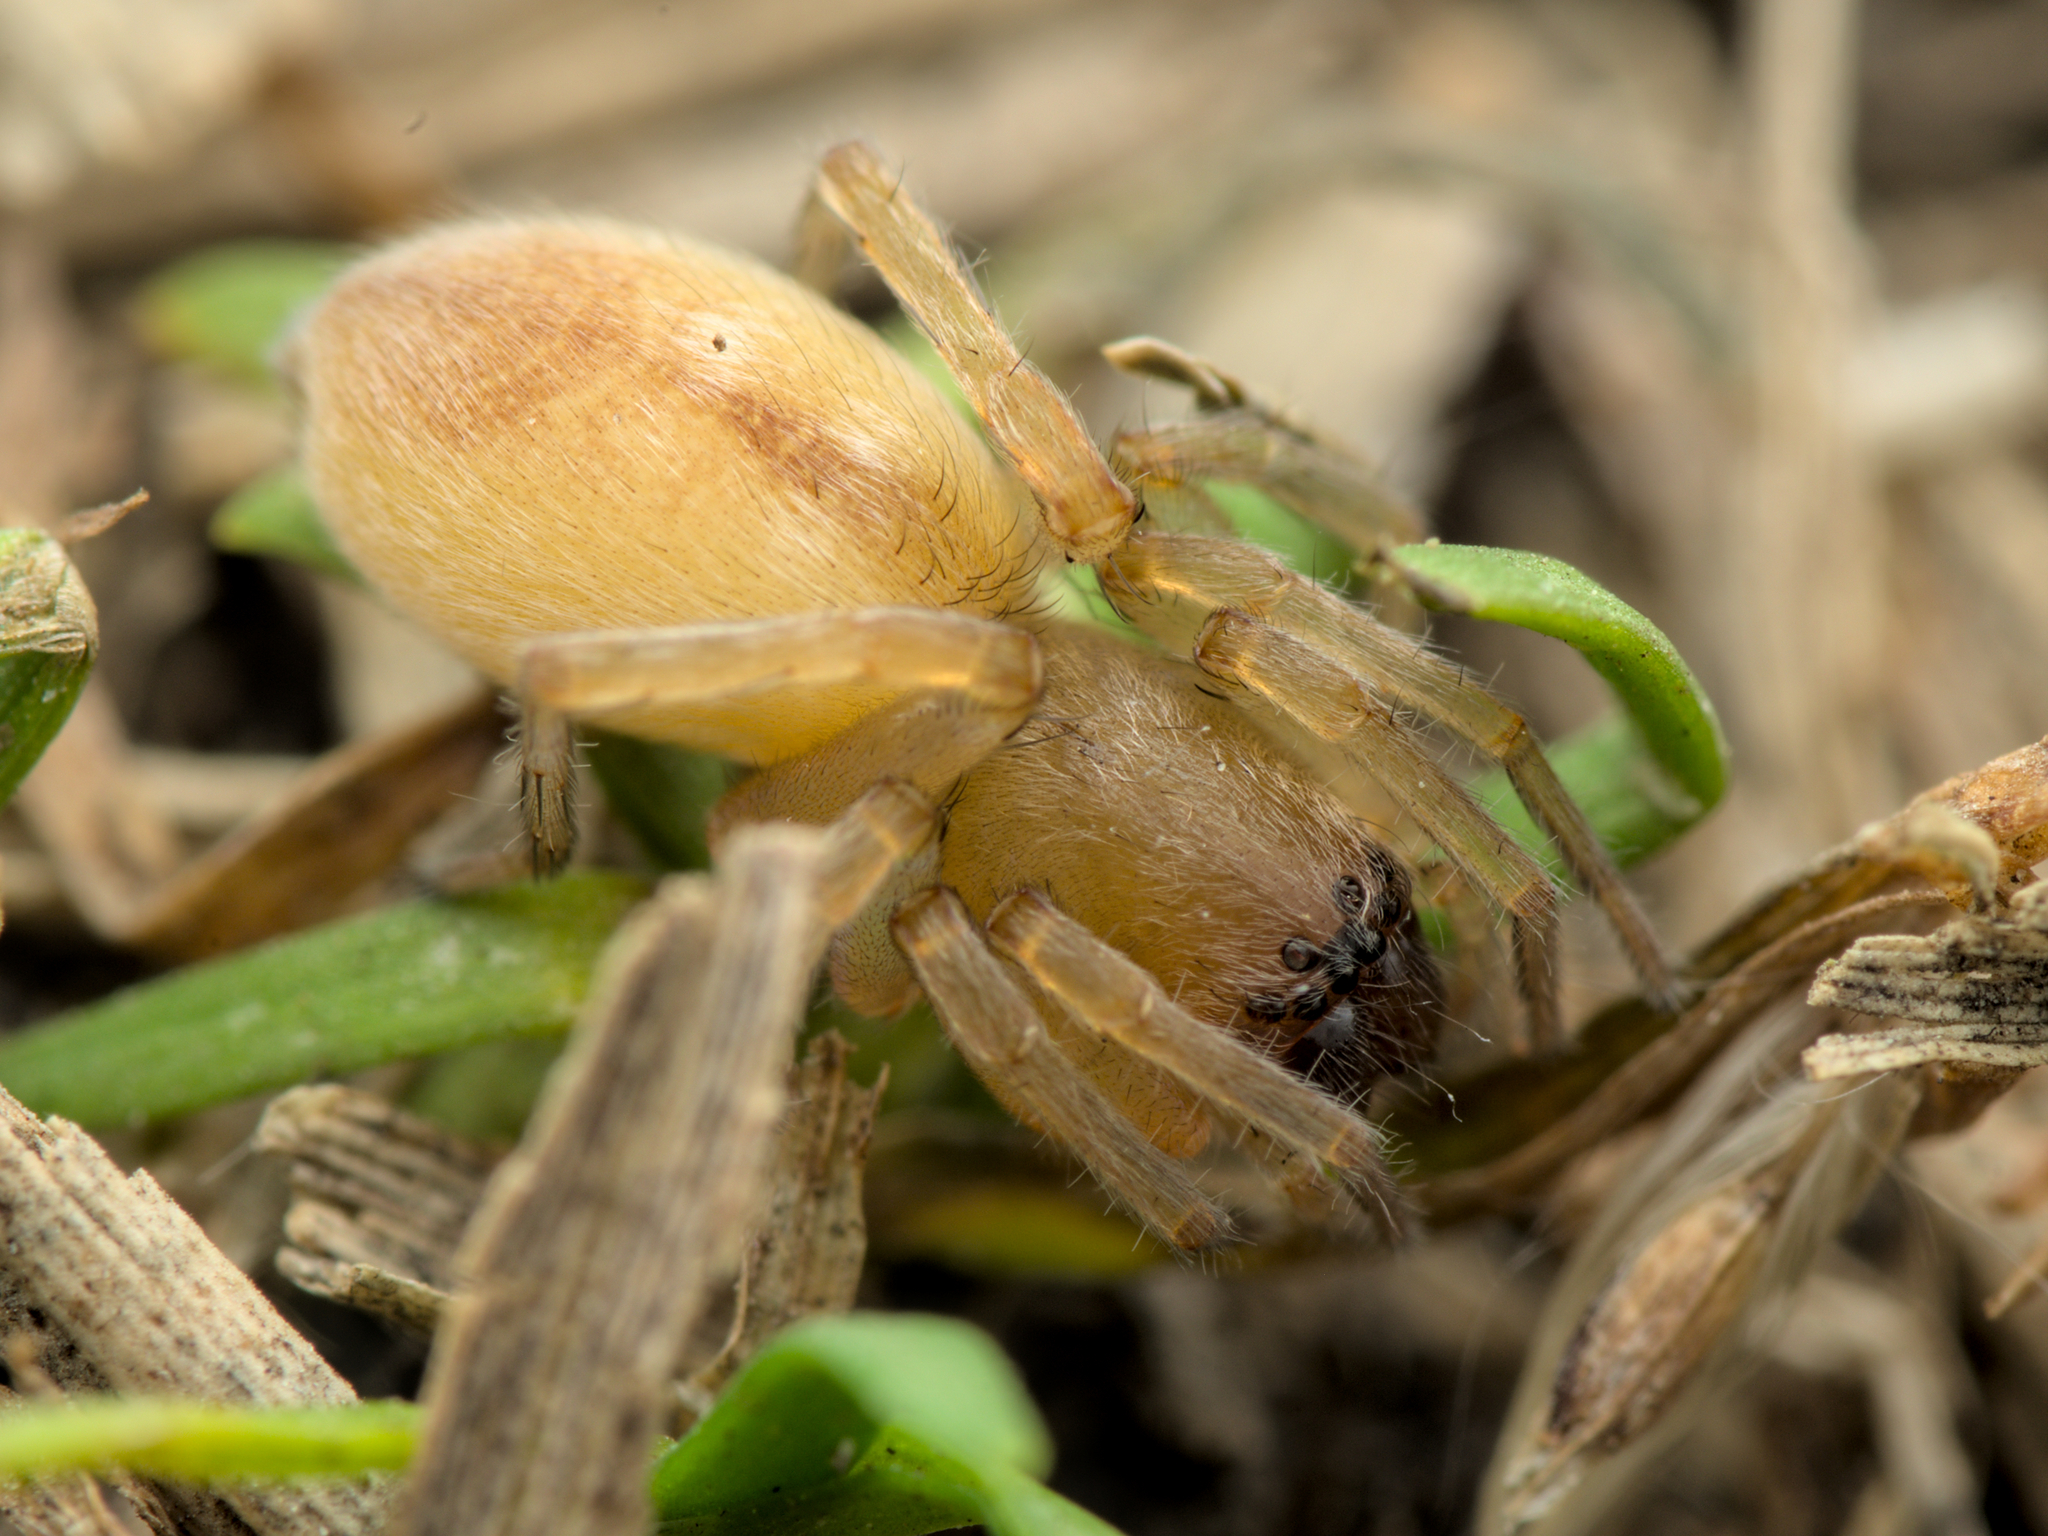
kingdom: Animalia
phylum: Arthropoda
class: Arachnida
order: Araneae
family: Clubionidae
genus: Clubiona
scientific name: Clubiona neglecta
